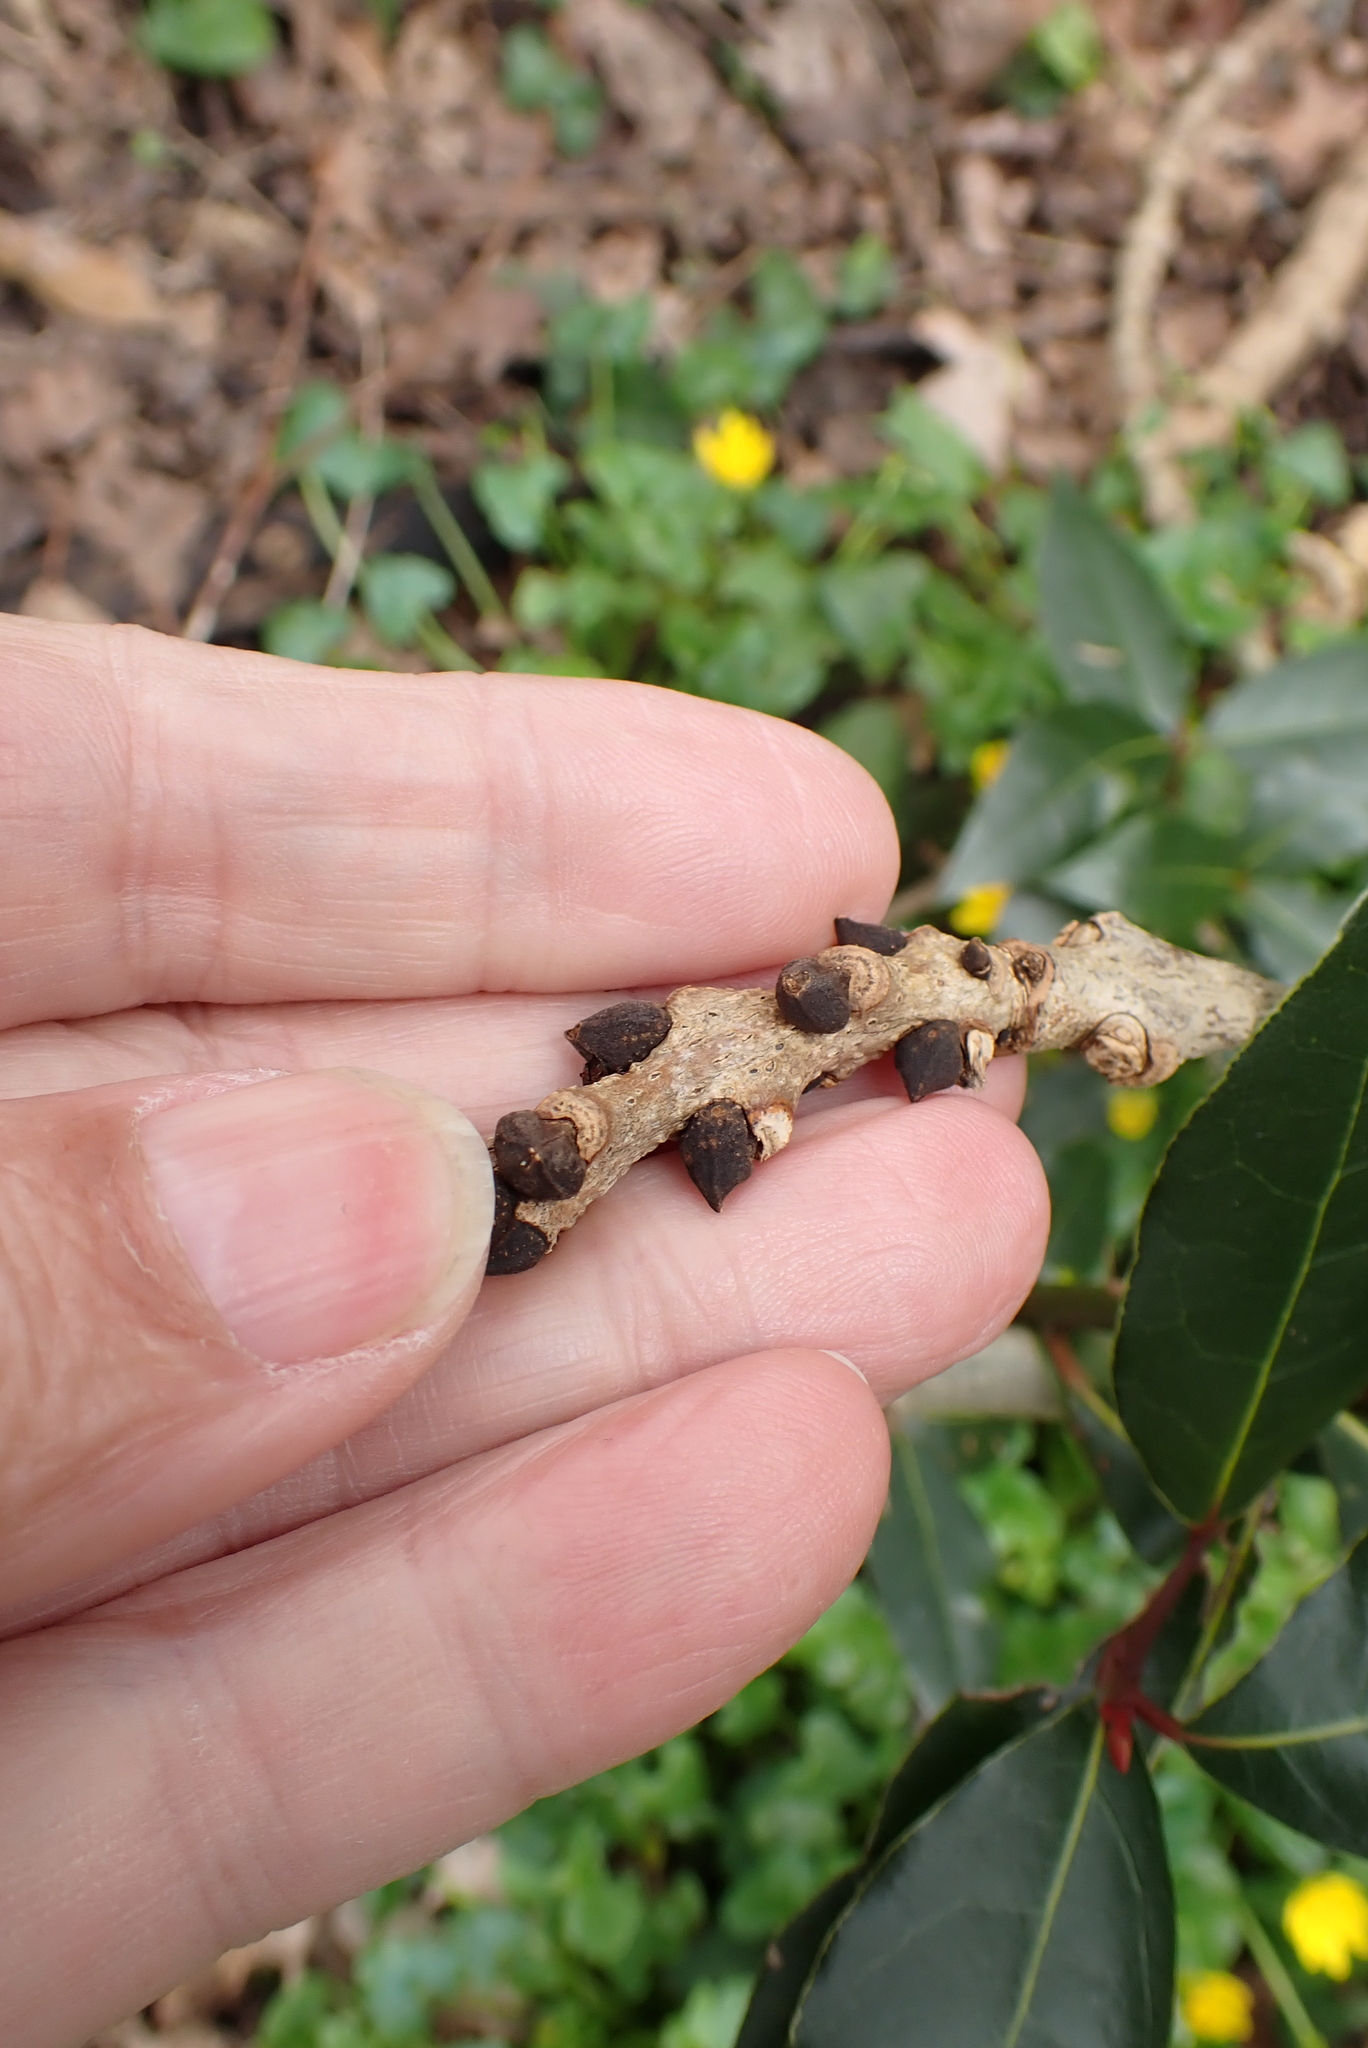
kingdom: Plantae
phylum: Tracheophyta
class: Magnoliopsida
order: Lamiales
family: Oleaceae
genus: Fraxinus
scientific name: Fraxinus excelsior
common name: European ash
